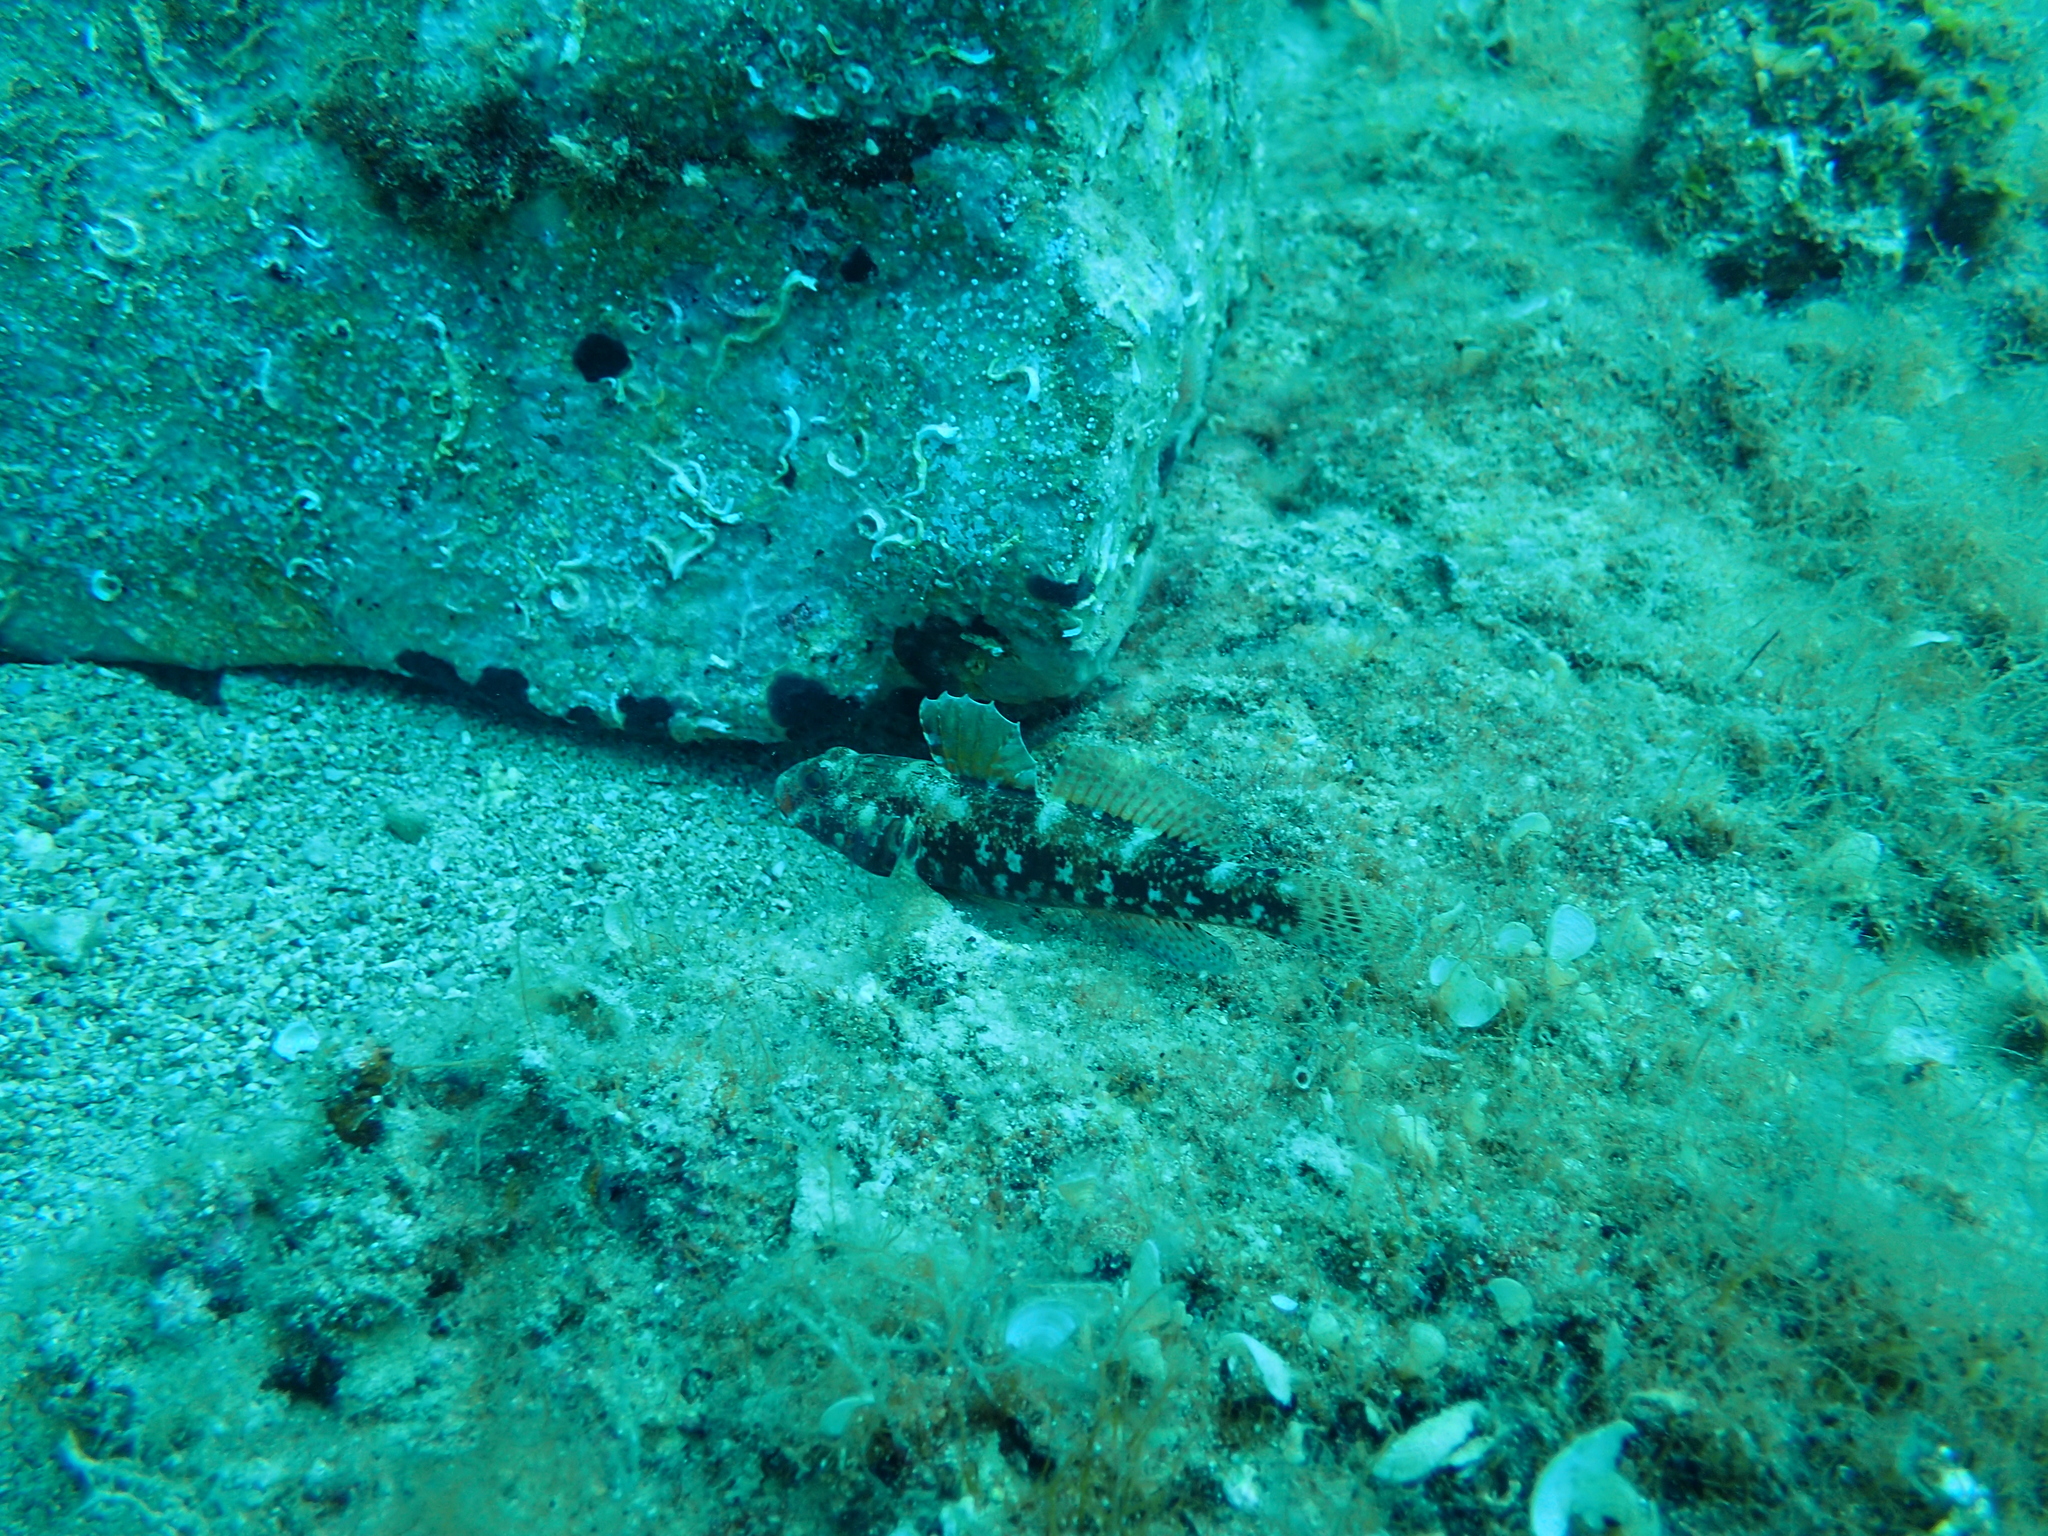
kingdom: Animalia
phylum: Chordata
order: Perciformes
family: Gobiidae
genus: Gobius
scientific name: Gobius cruentatus
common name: Red-mouthed goby
